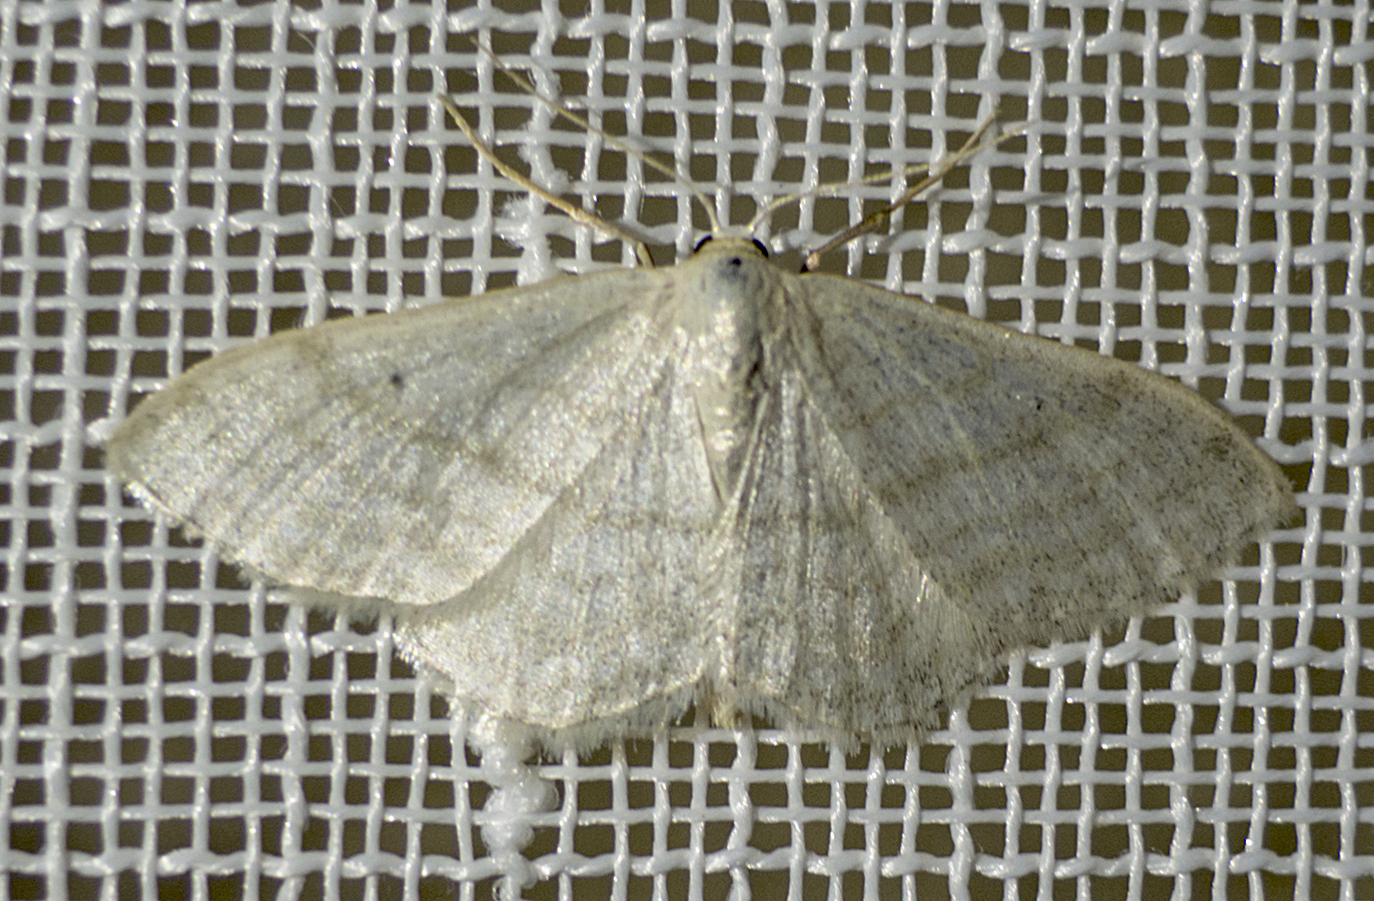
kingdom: Animalia
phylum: Arthropoda
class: Insecta
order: Lepidoptera
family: Geometridae
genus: Idaea
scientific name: Idaea subsericeata
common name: Satin wave
